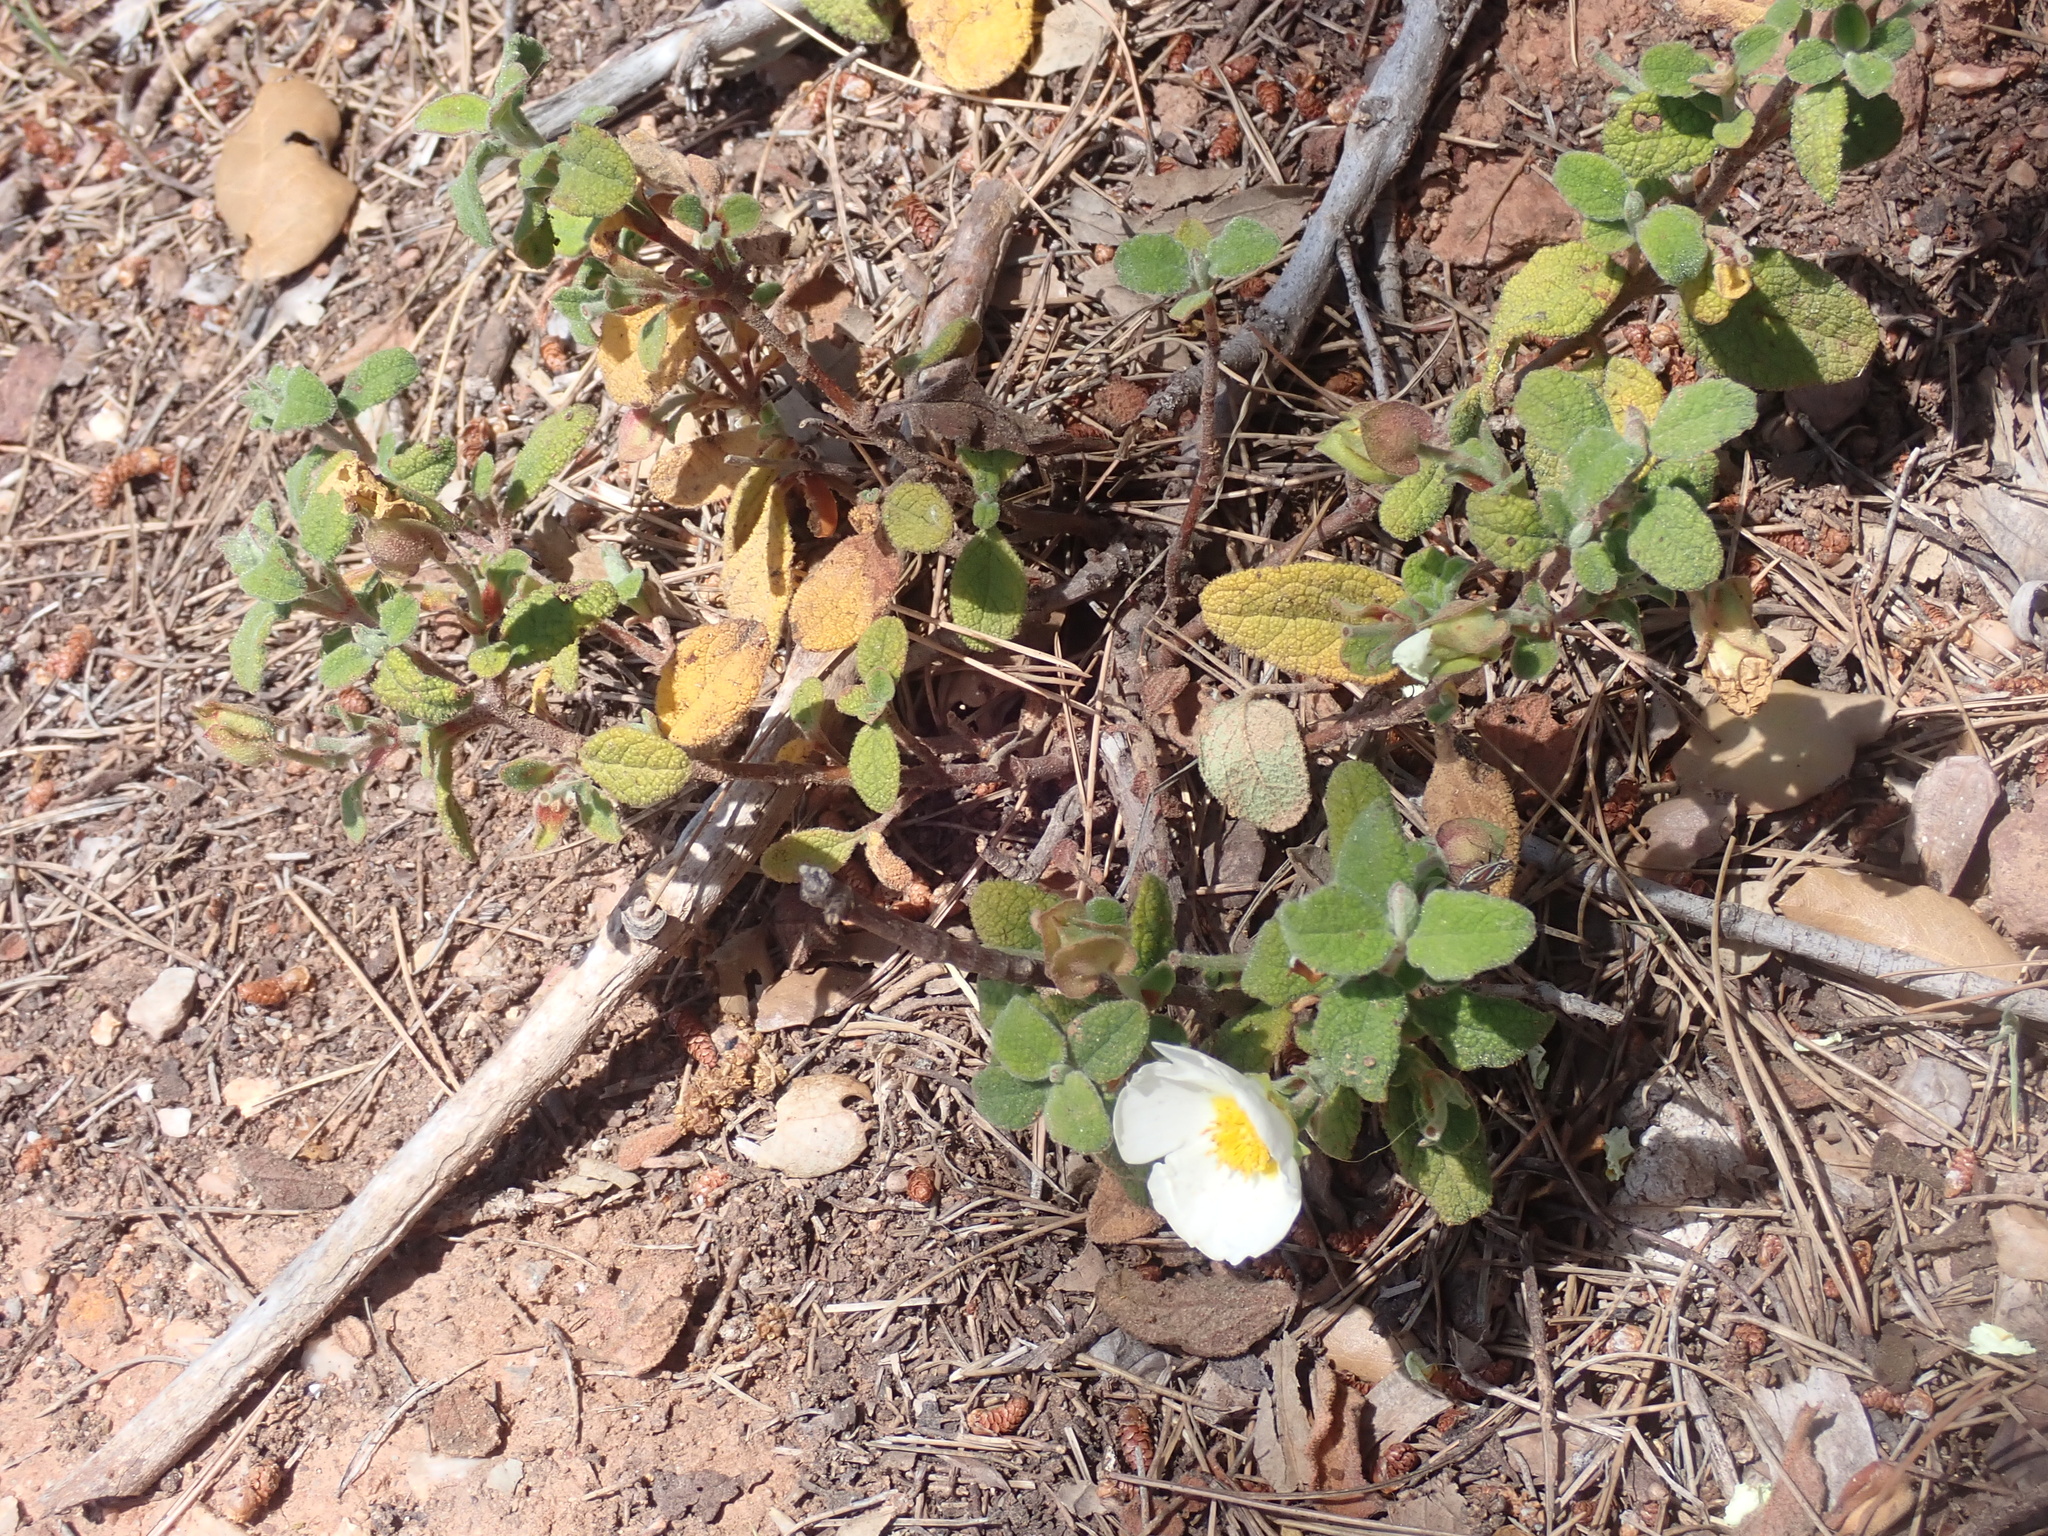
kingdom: Plantae
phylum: Tracheophyta
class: Magnoliopsida
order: Malvales
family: Cistaceae
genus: Cistus
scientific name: Cistus salviifolius
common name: Salvia cistus
